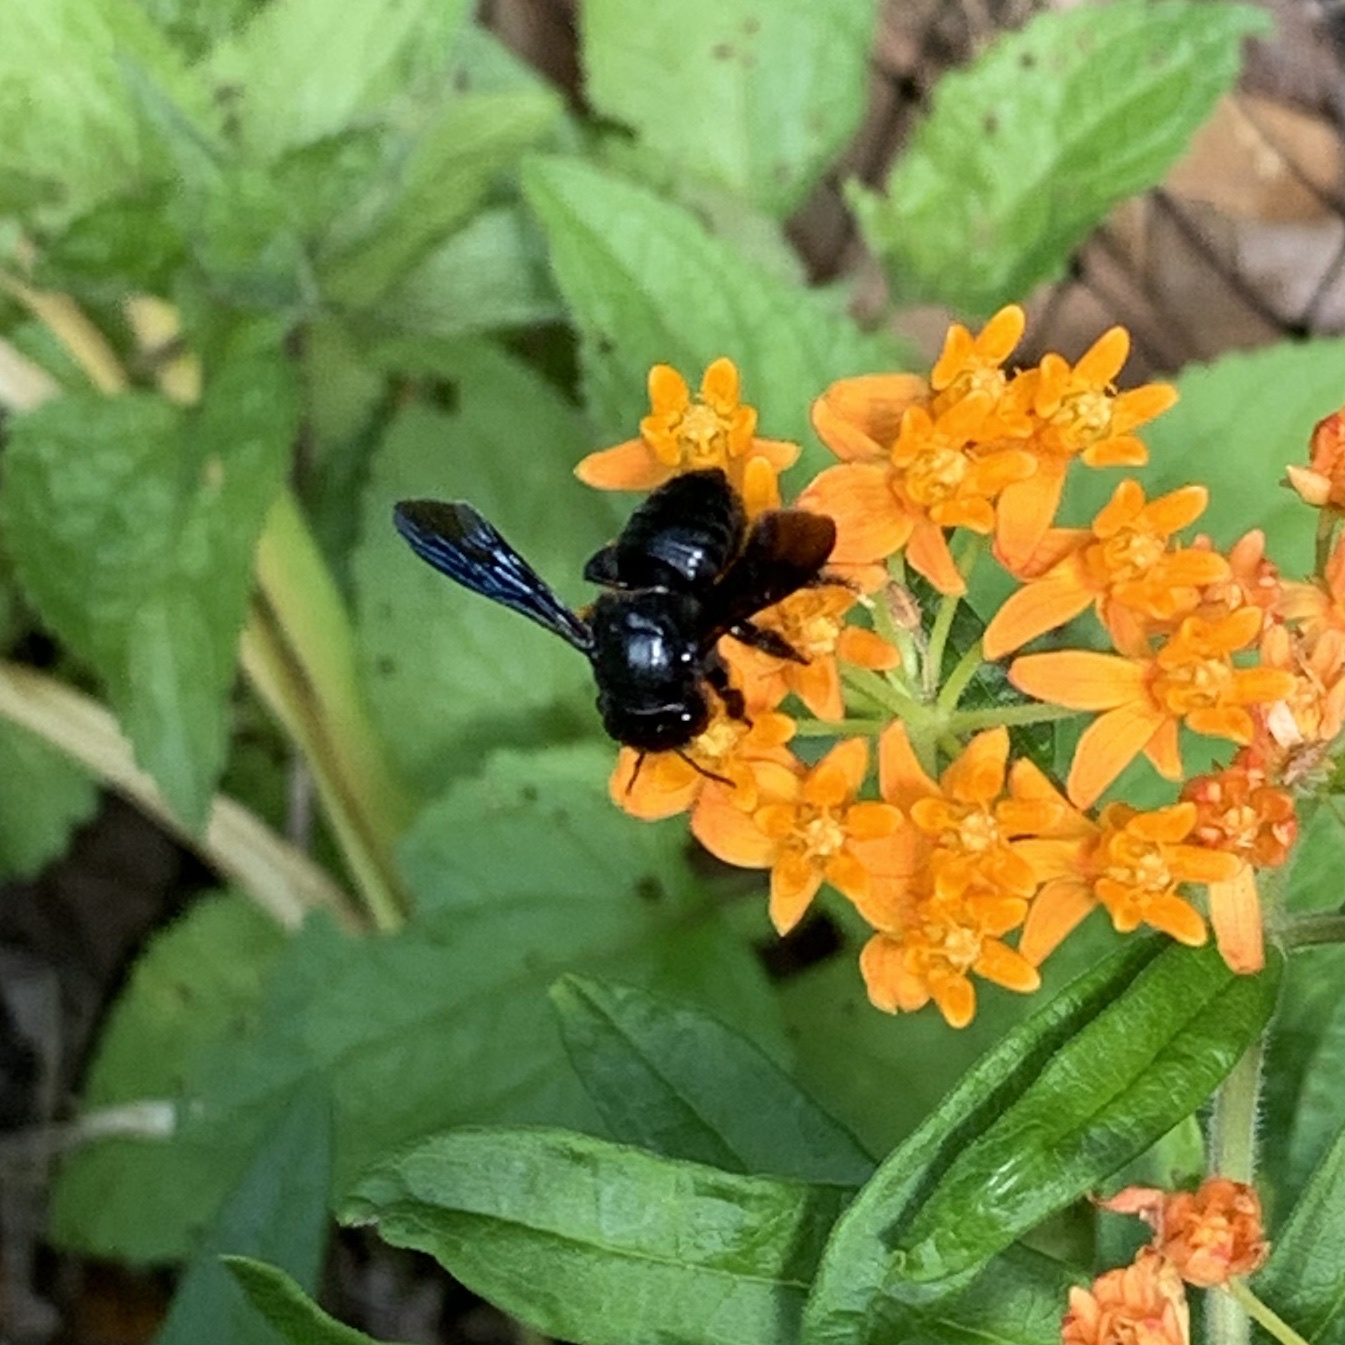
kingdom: Animalia
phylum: Arthropoda
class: Insecta
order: Hymenoptera
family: Megachilidae
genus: Megachile
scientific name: Megachile xylocopoides
